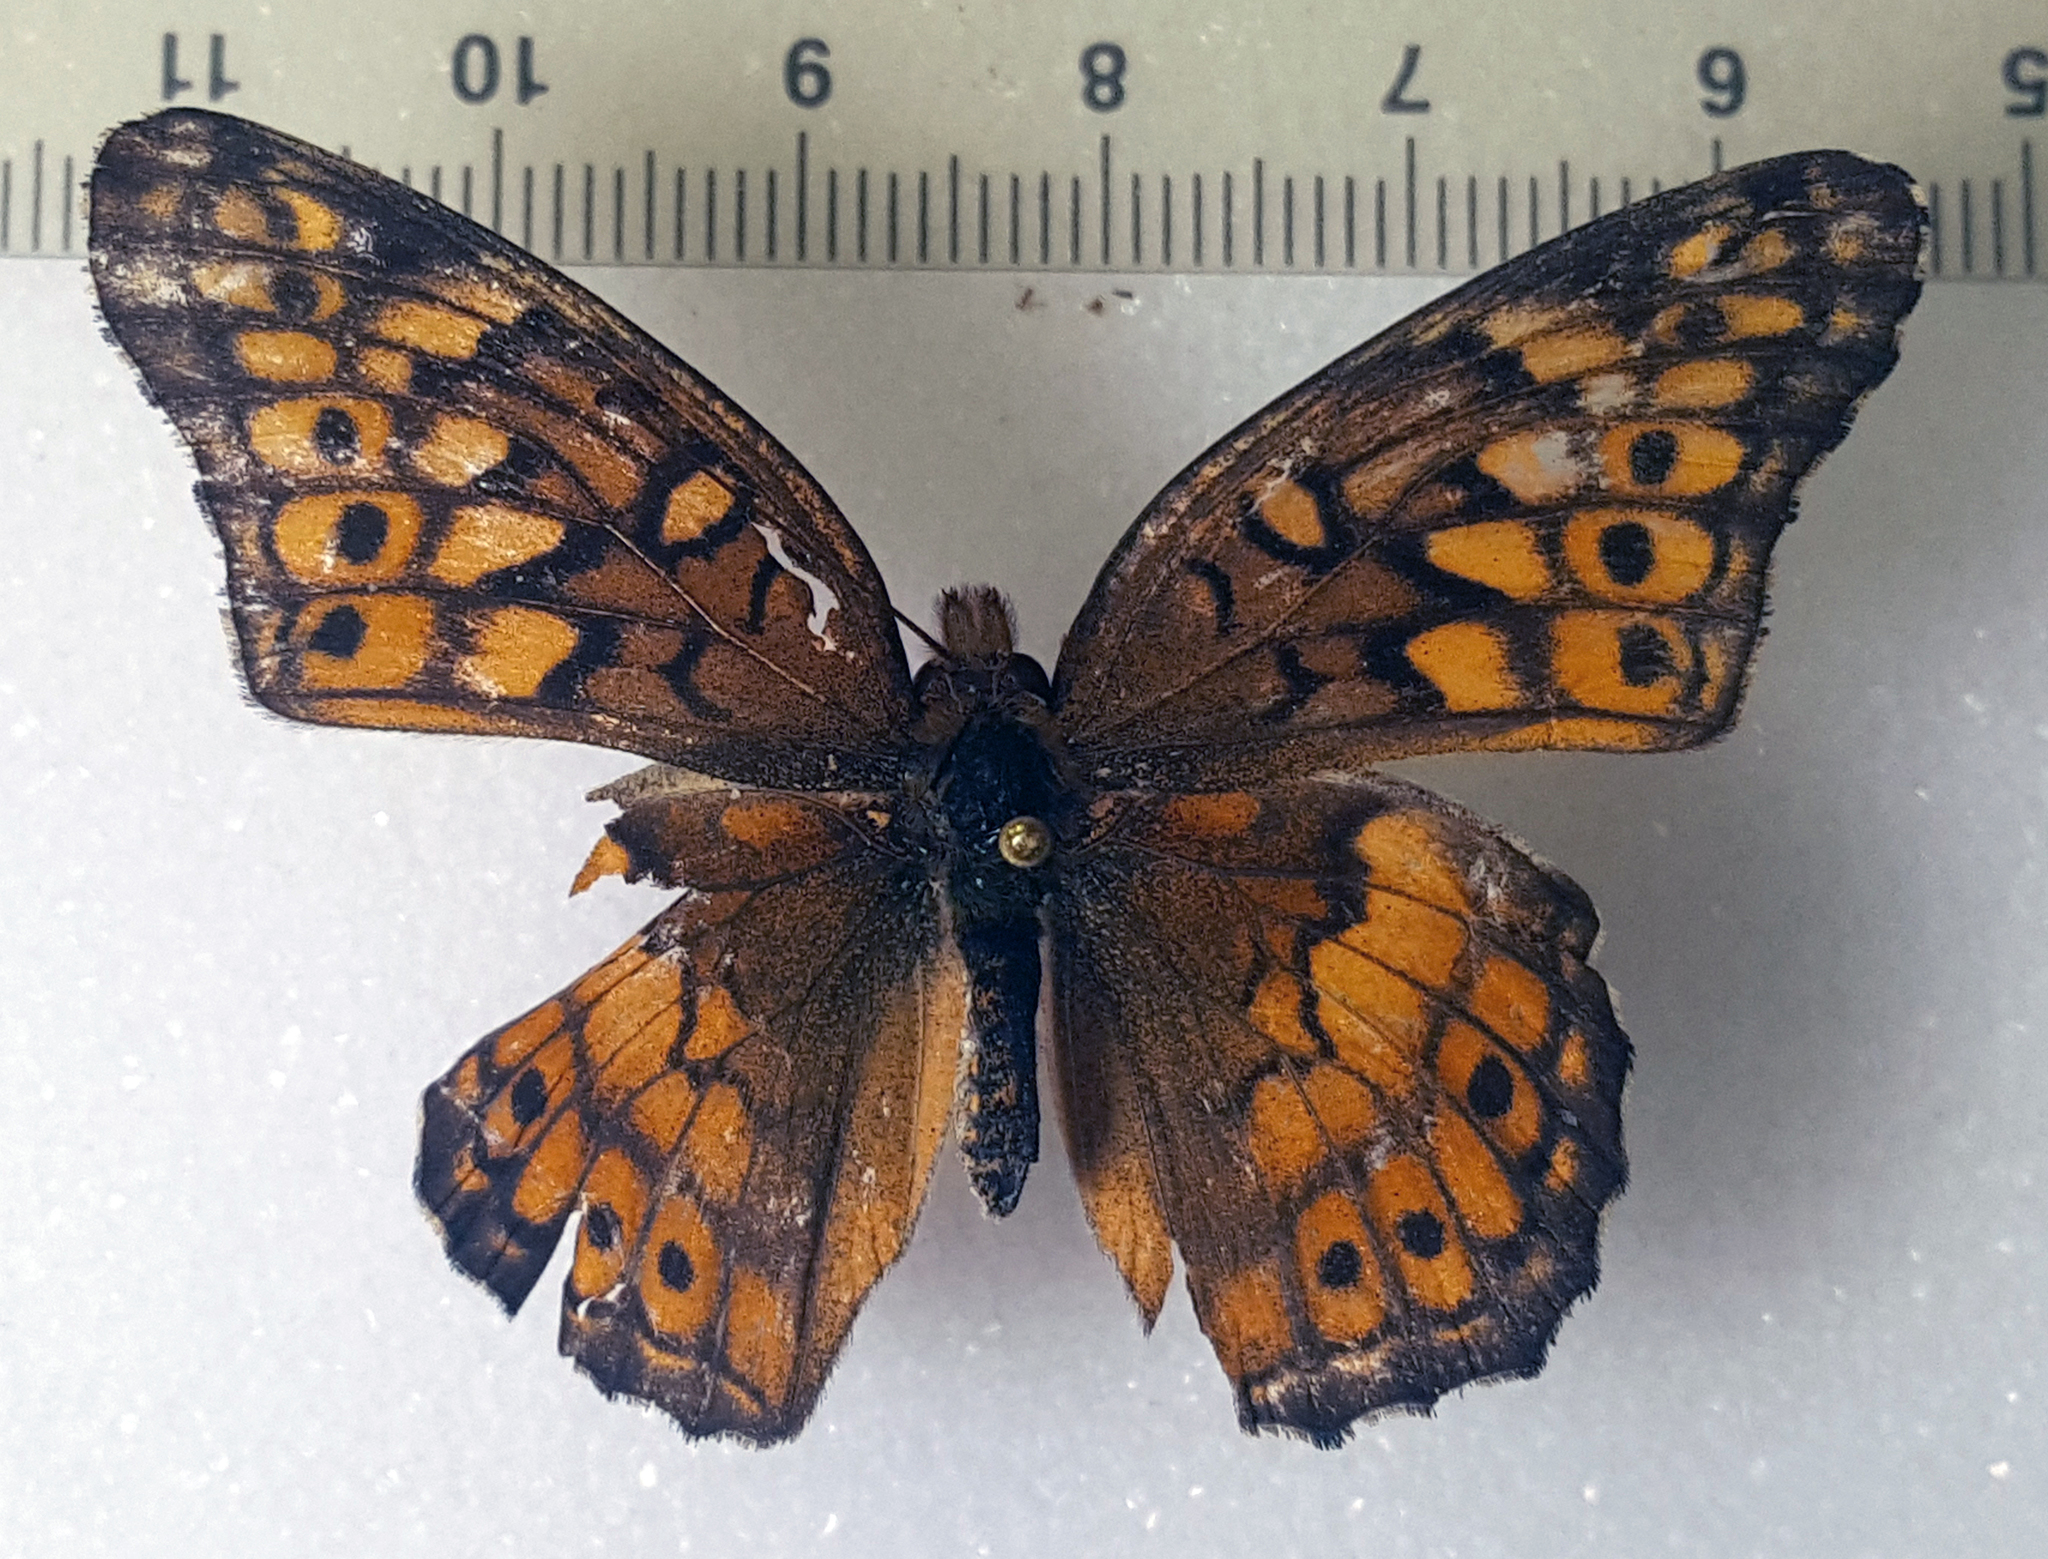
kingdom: Animalia
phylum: Arthropoda
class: Insecta
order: Lepidoptera
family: Nymphalidae
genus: Euptoieta
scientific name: Euptoieta claudia
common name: Variegated fritillary
